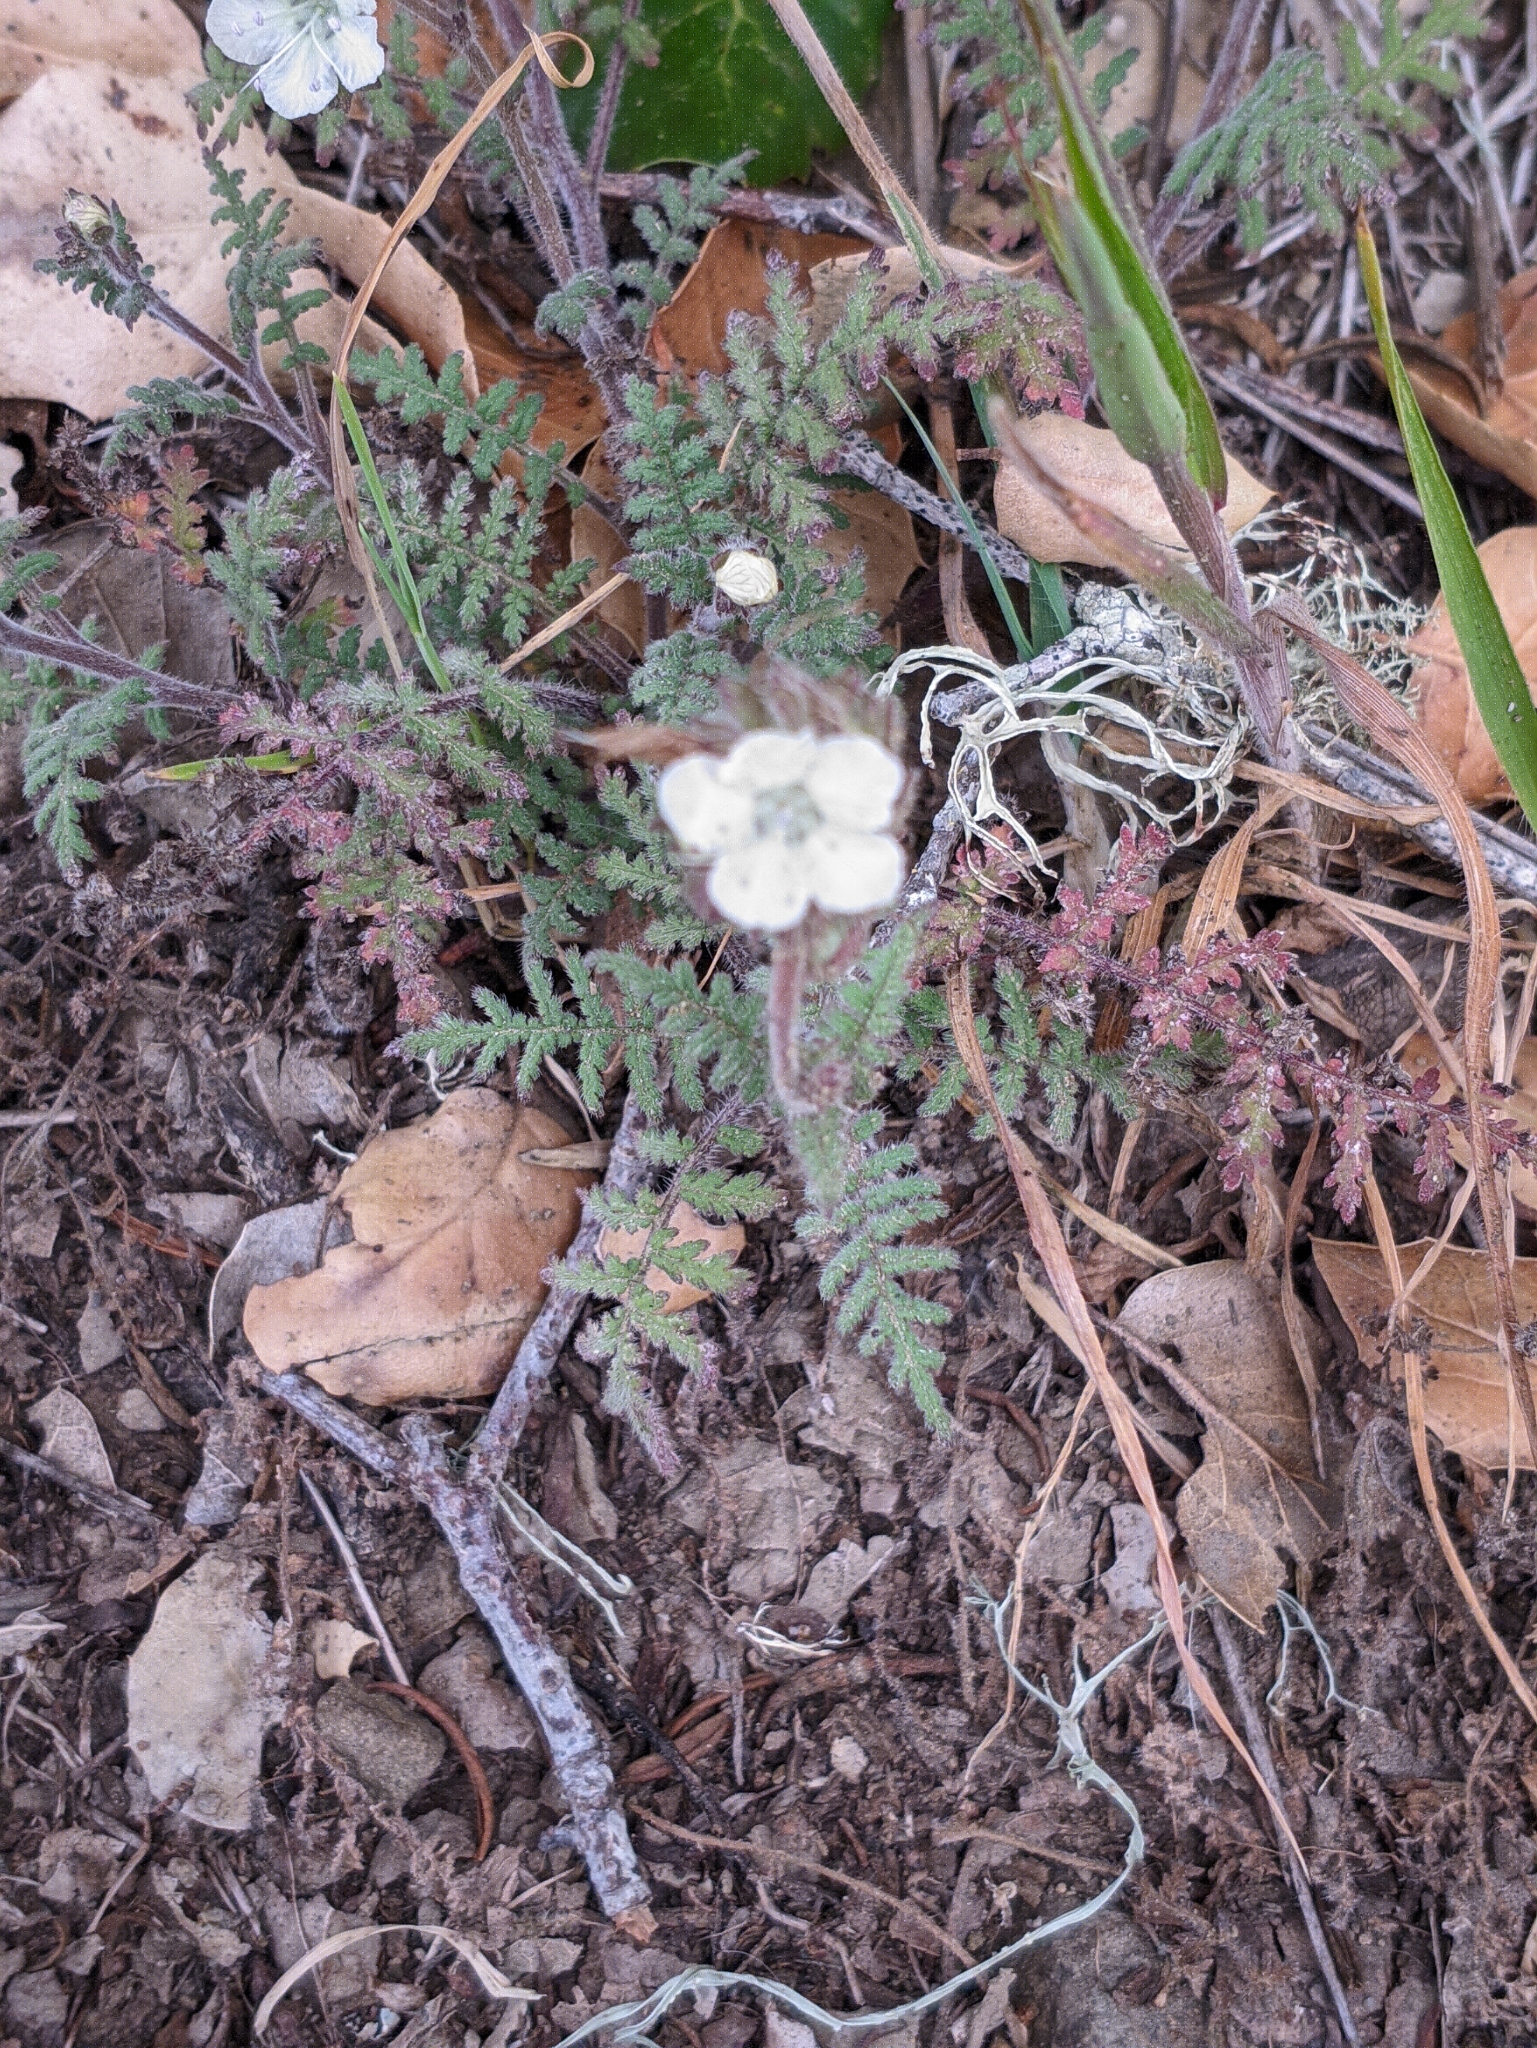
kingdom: Plantae
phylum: Tracheophyta
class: Magnoliopsida
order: Boraginales
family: Hydrophyllaceae
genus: Phacelia
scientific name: Phacelia distans
